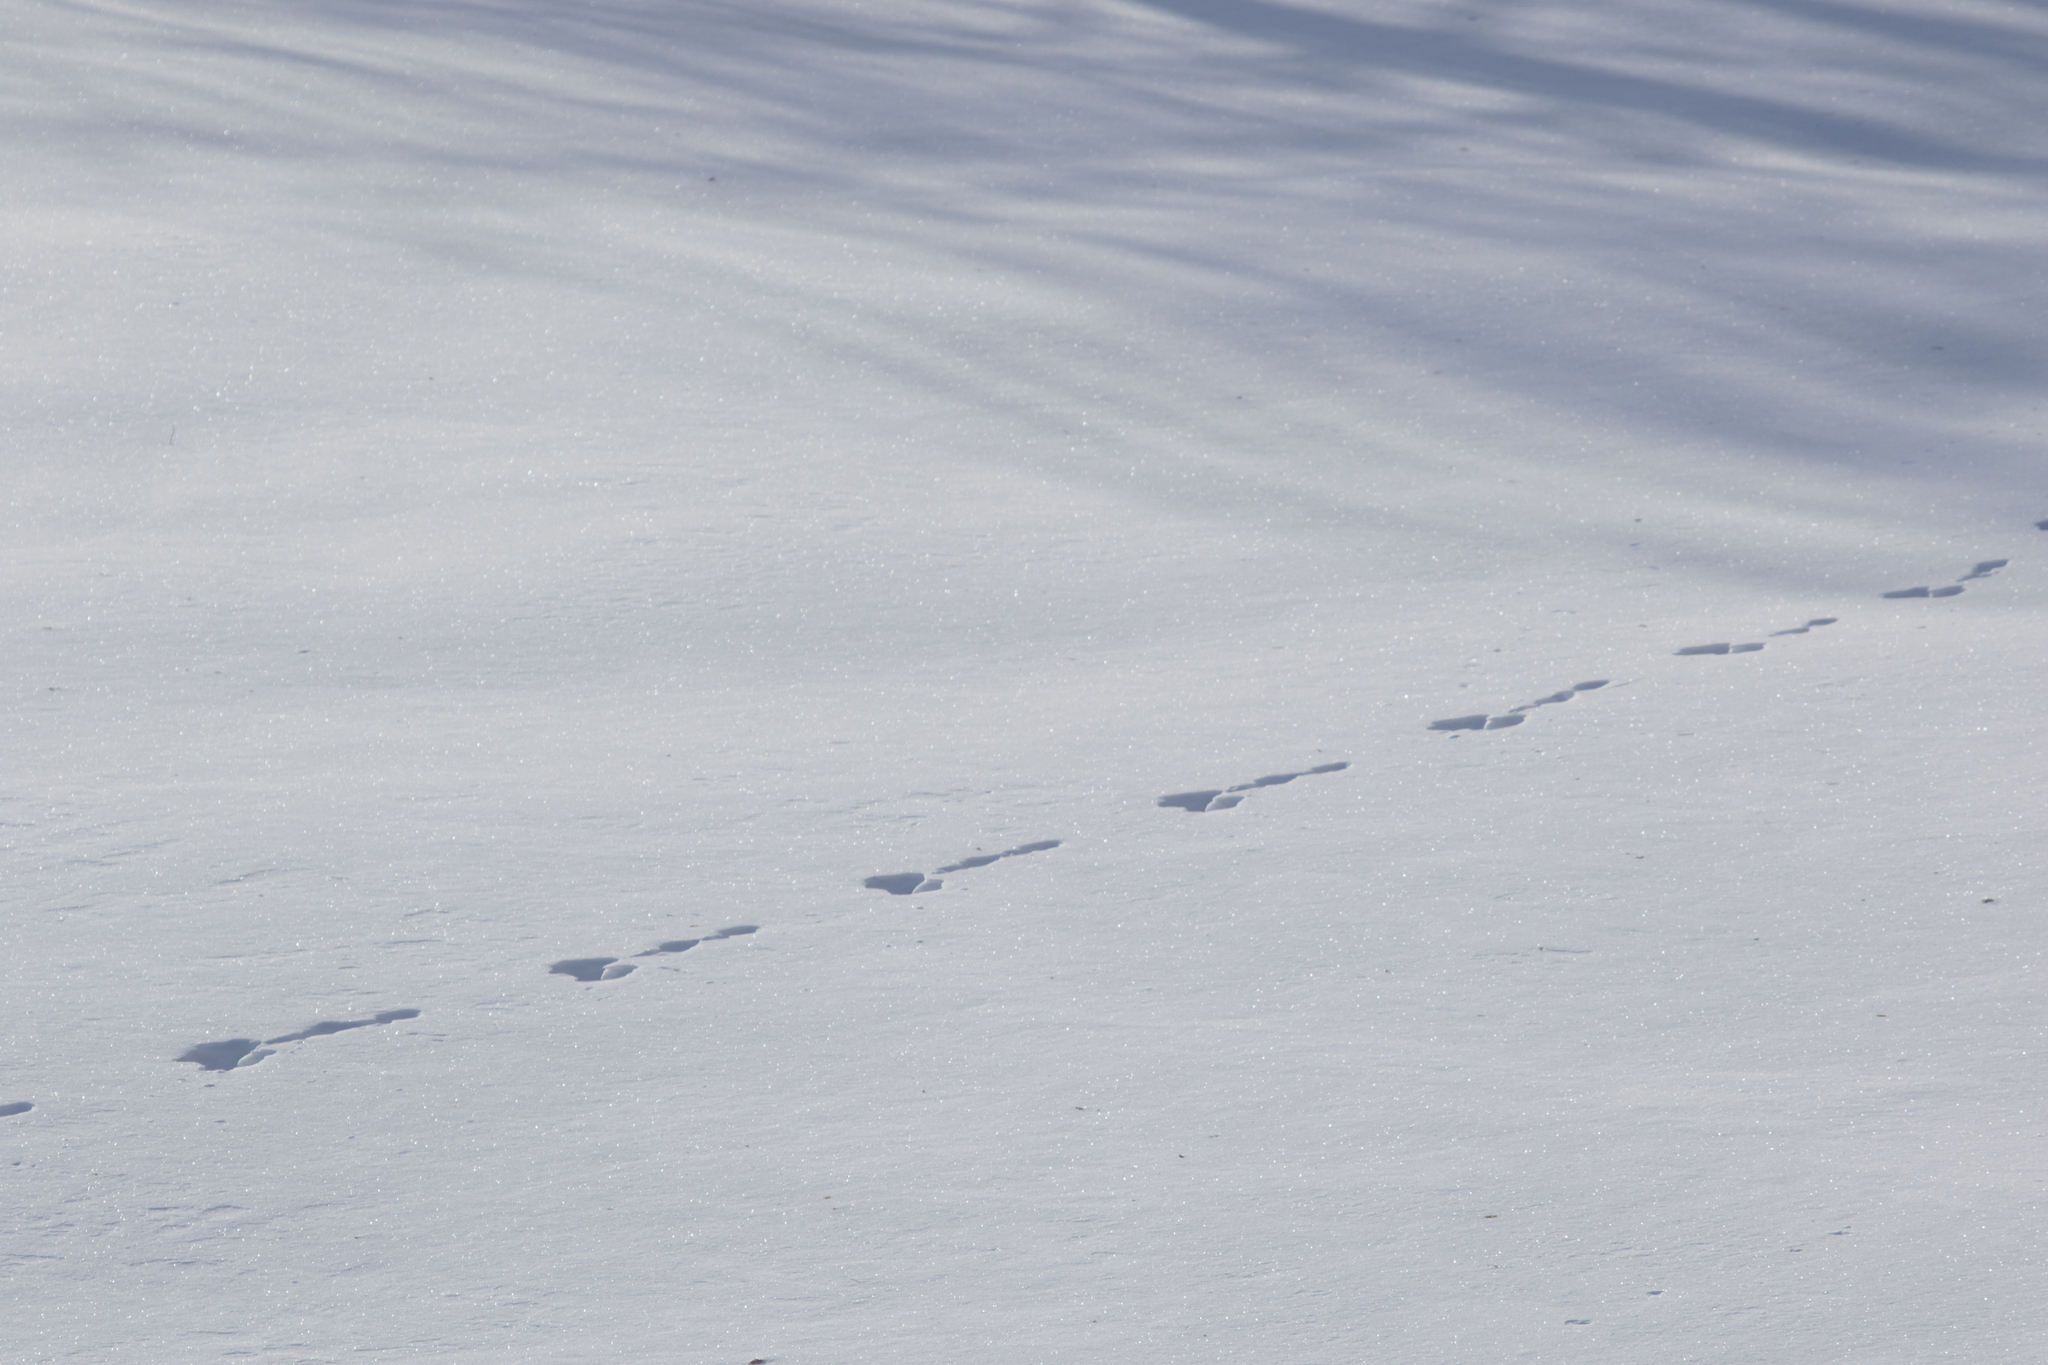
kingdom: Animalia
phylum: Chordata
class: Mammalia
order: Lagomorpha
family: Leporidae
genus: Lepus
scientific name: Lepus timidus
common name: Mountain hare
